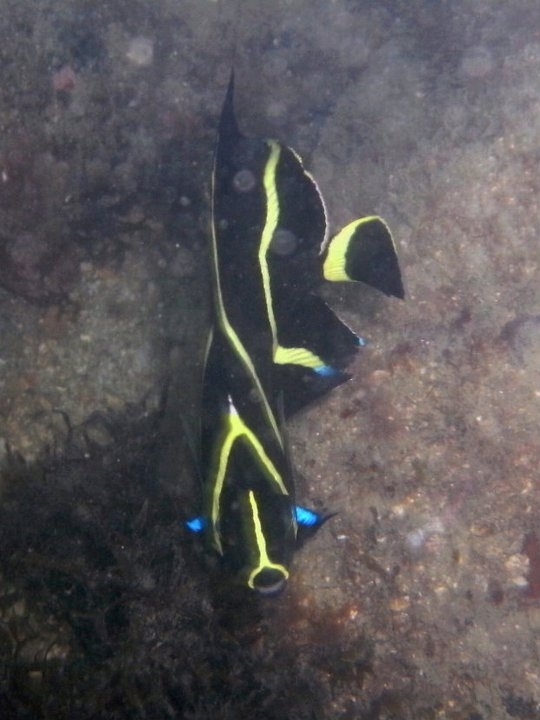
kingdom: Animalia
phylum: Chordata
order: Perciformes
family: Pomacanthidae
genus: Pomacanthus
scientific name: Pomacanthus paru
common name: French angelfish
